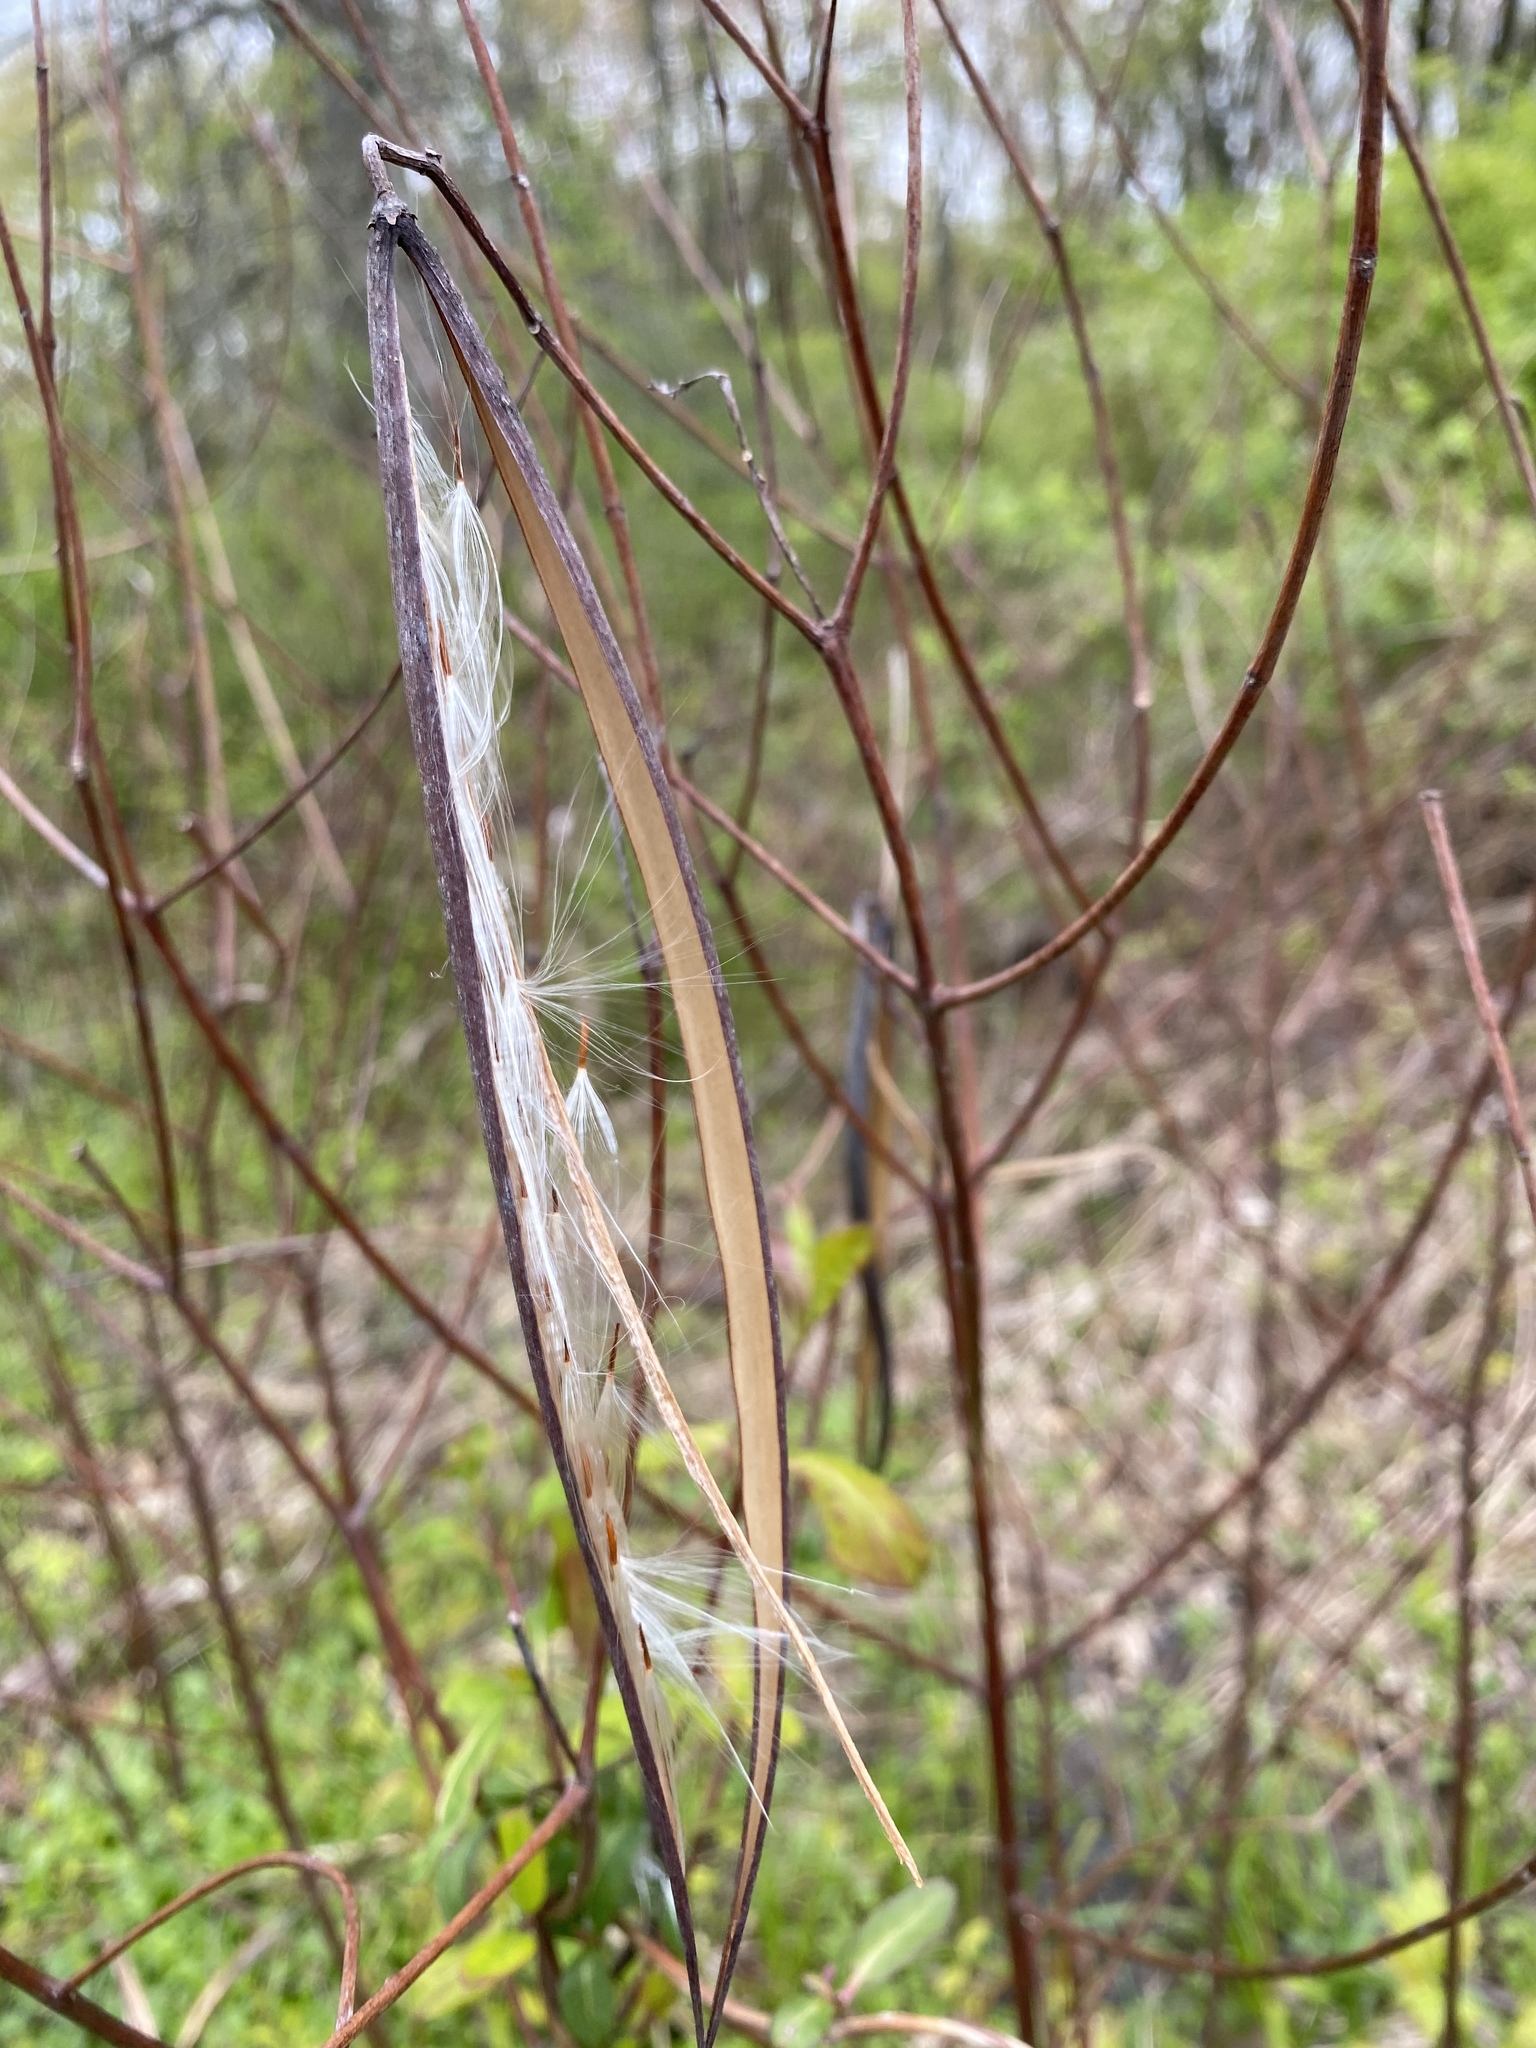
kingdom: Plantae
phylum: Tracheophyta
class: Magnoliopsida
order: Gentianales
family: Apocynaceae
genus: Apocynum
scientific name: Apocynum cannabinum
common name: Hemp dogbane
